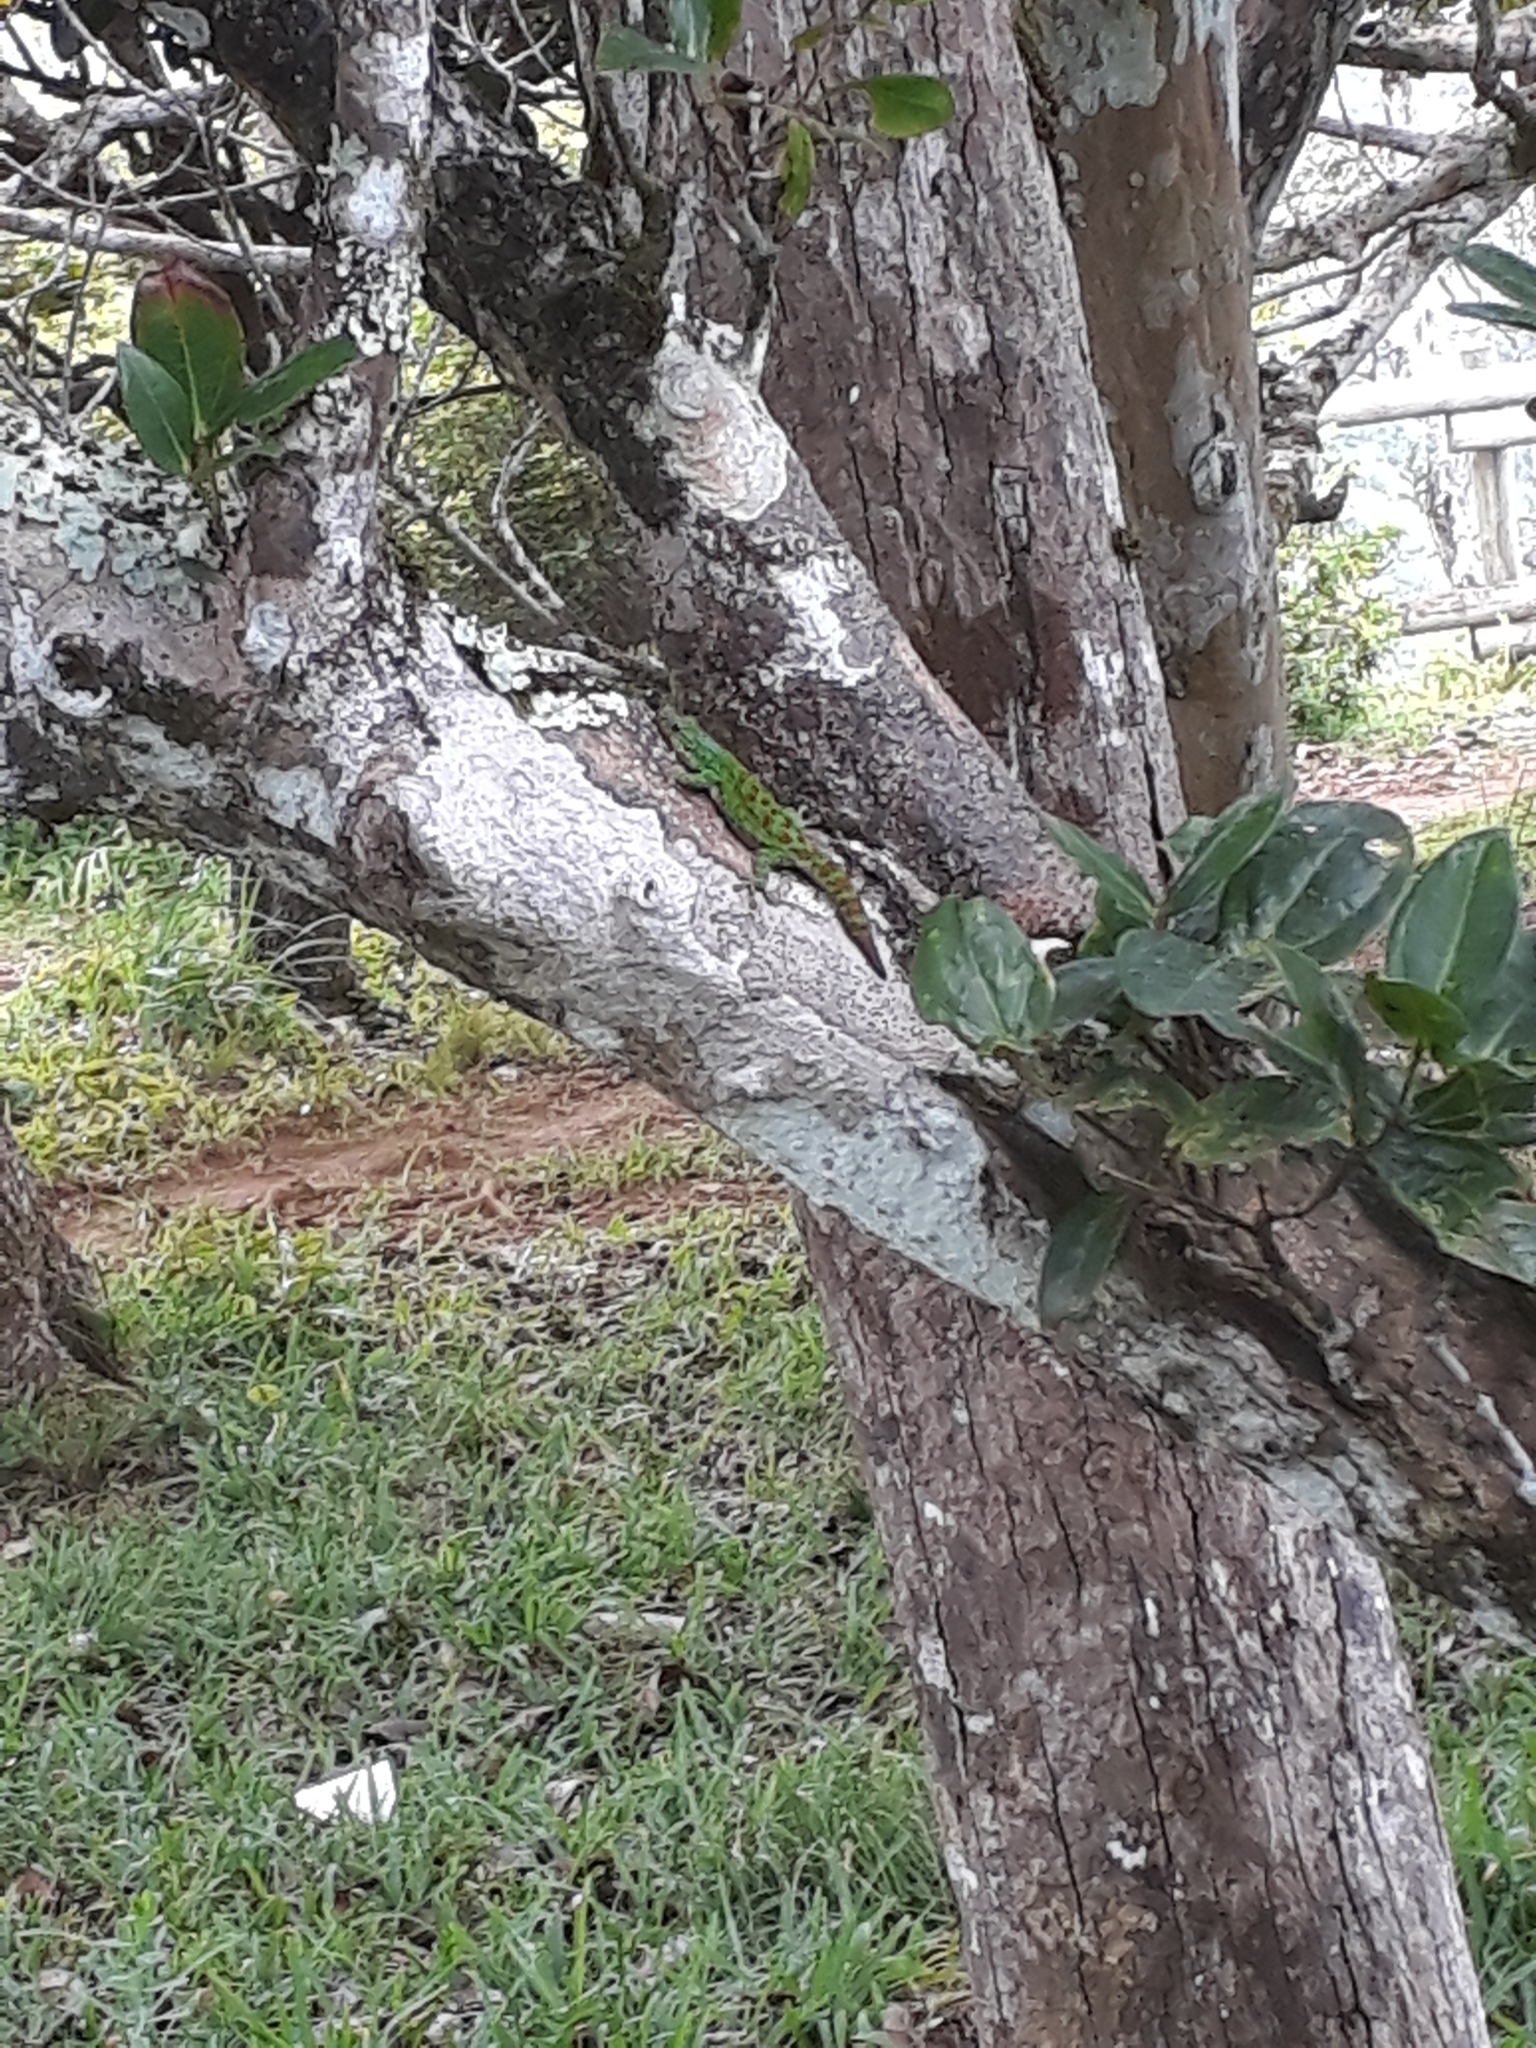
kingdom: Animalia
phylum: Chordata
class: Squamata
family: Gekkonidae
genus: Phelsuma
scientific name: Phelsuma rosagularis
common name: Upland forest day gecko
